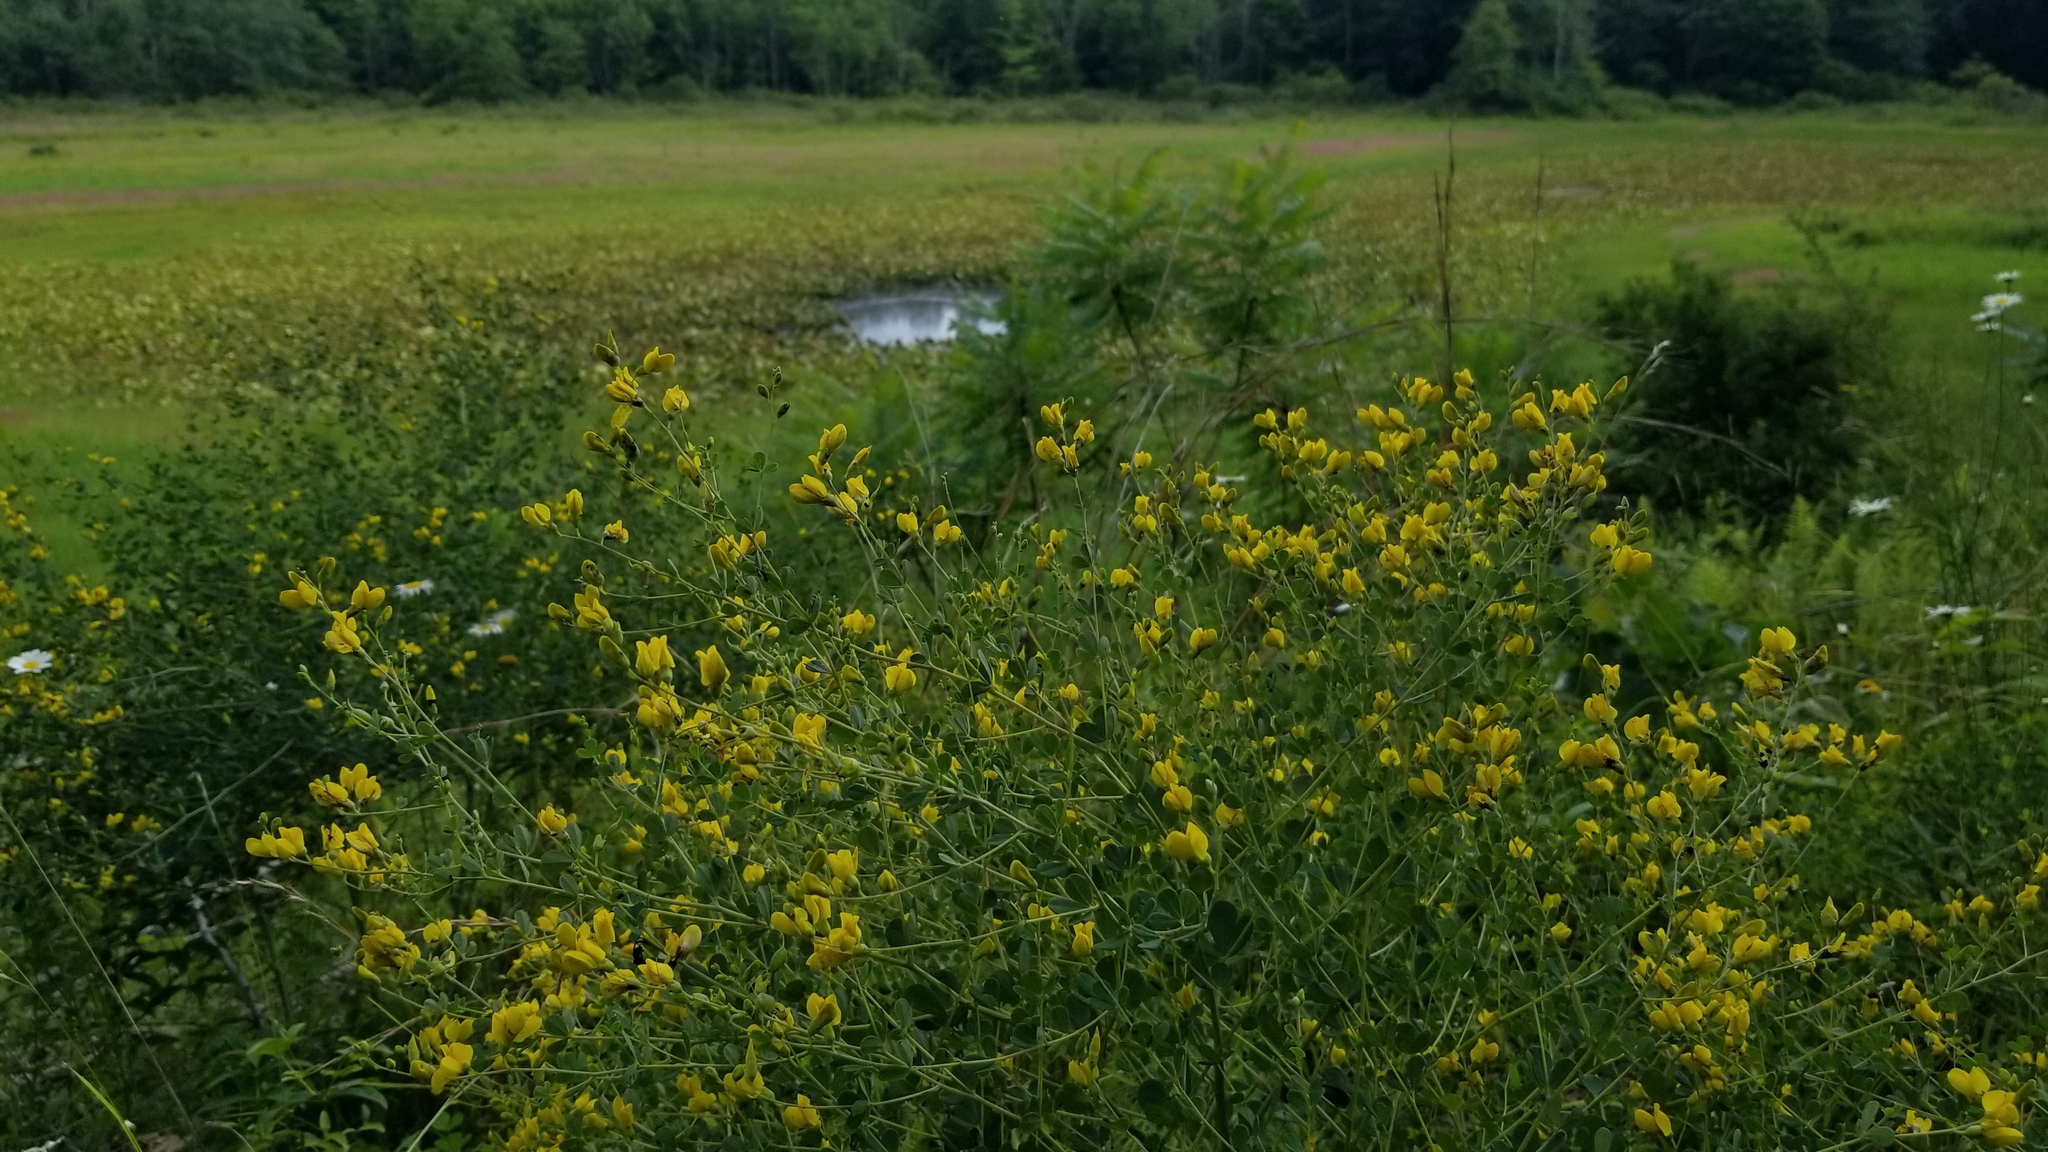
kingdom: Plantae
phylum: Tracheophyta
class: Magnoliopsida
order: Fabales
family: Fabaceae
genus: Baptisia
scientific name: Baptisia tinctoria
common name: Wild indigo
